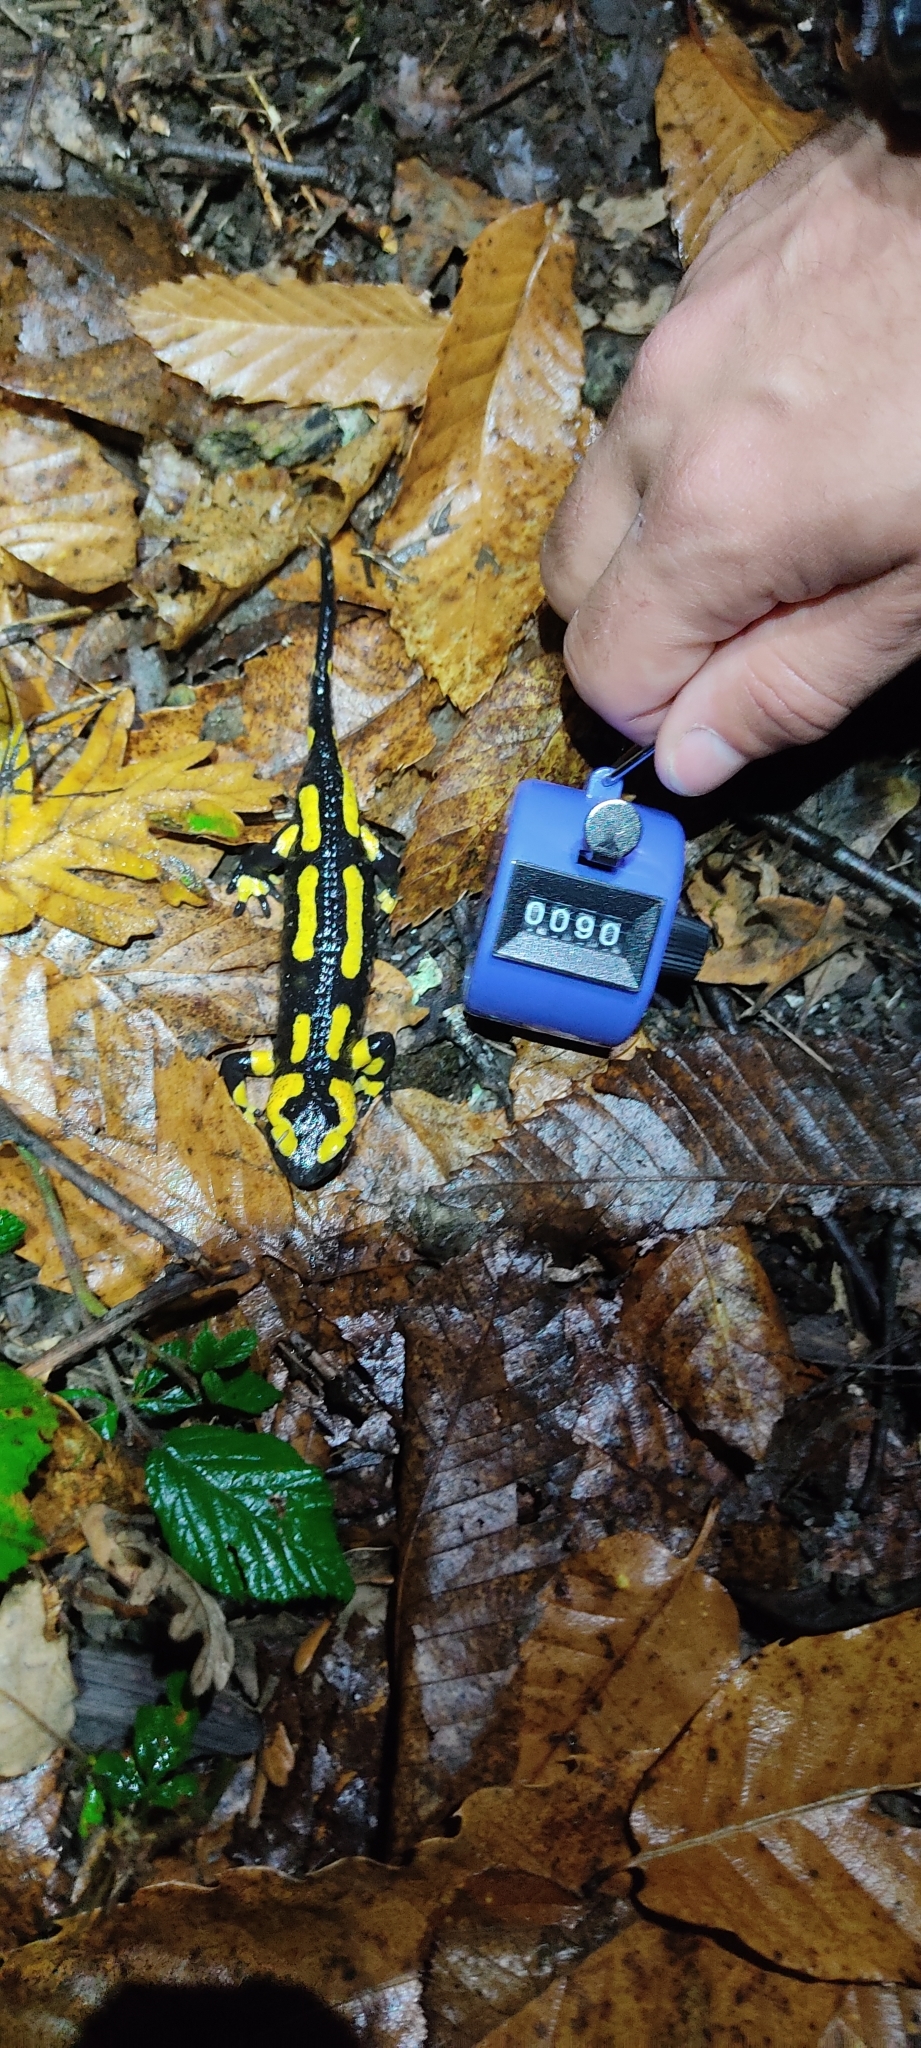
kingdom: Animalia
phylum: Chordata
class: Amphibia
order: Caudata
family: Salamandridae
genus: Salamandra
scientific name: Salamandra salamandra
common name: Fire salamander
